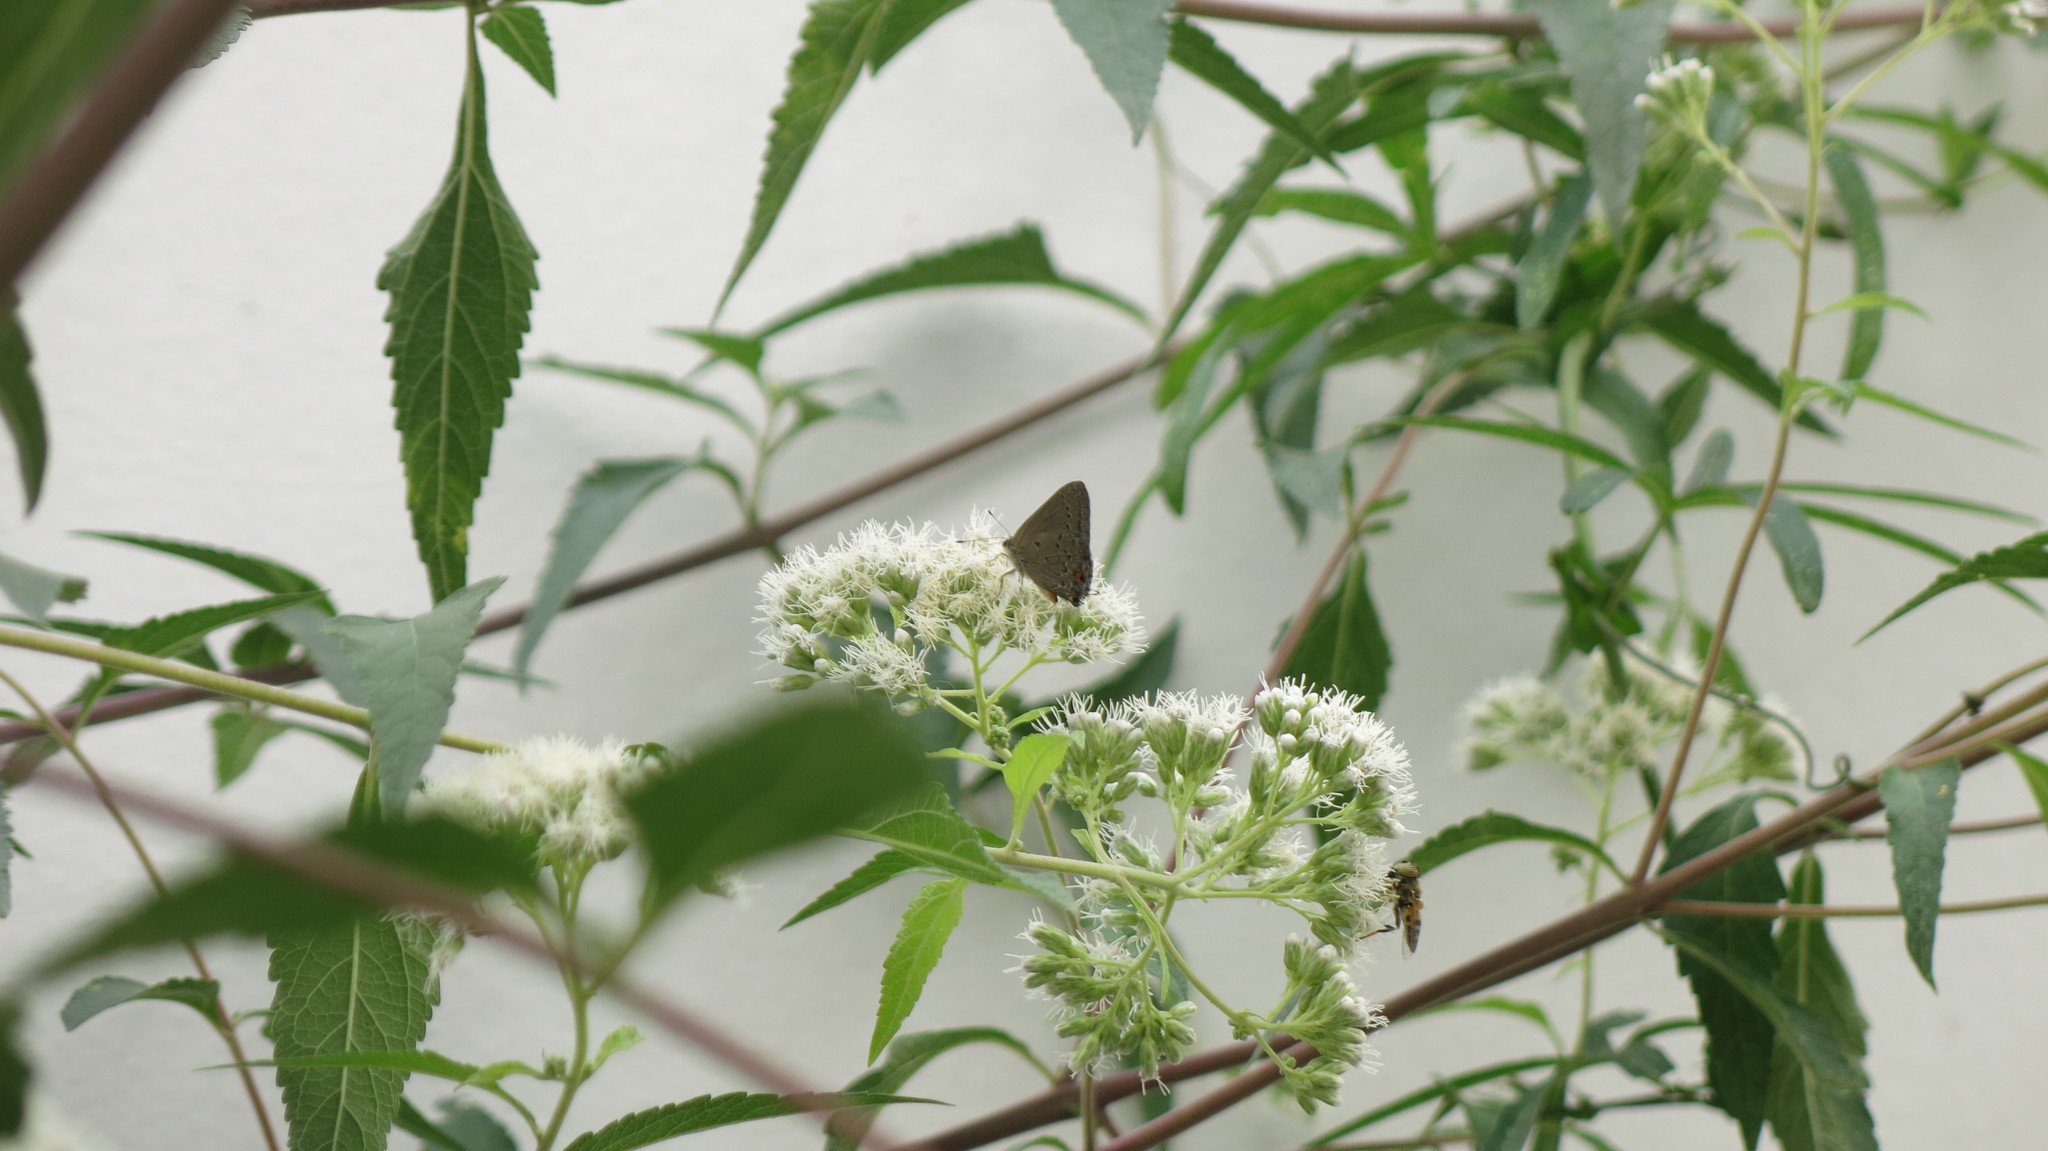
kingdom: Animalia
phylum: Arthropoda
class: Insecta
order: Lepidoptera
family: Lycaenidae
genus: Strymon
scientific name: Strymon eurytulus
